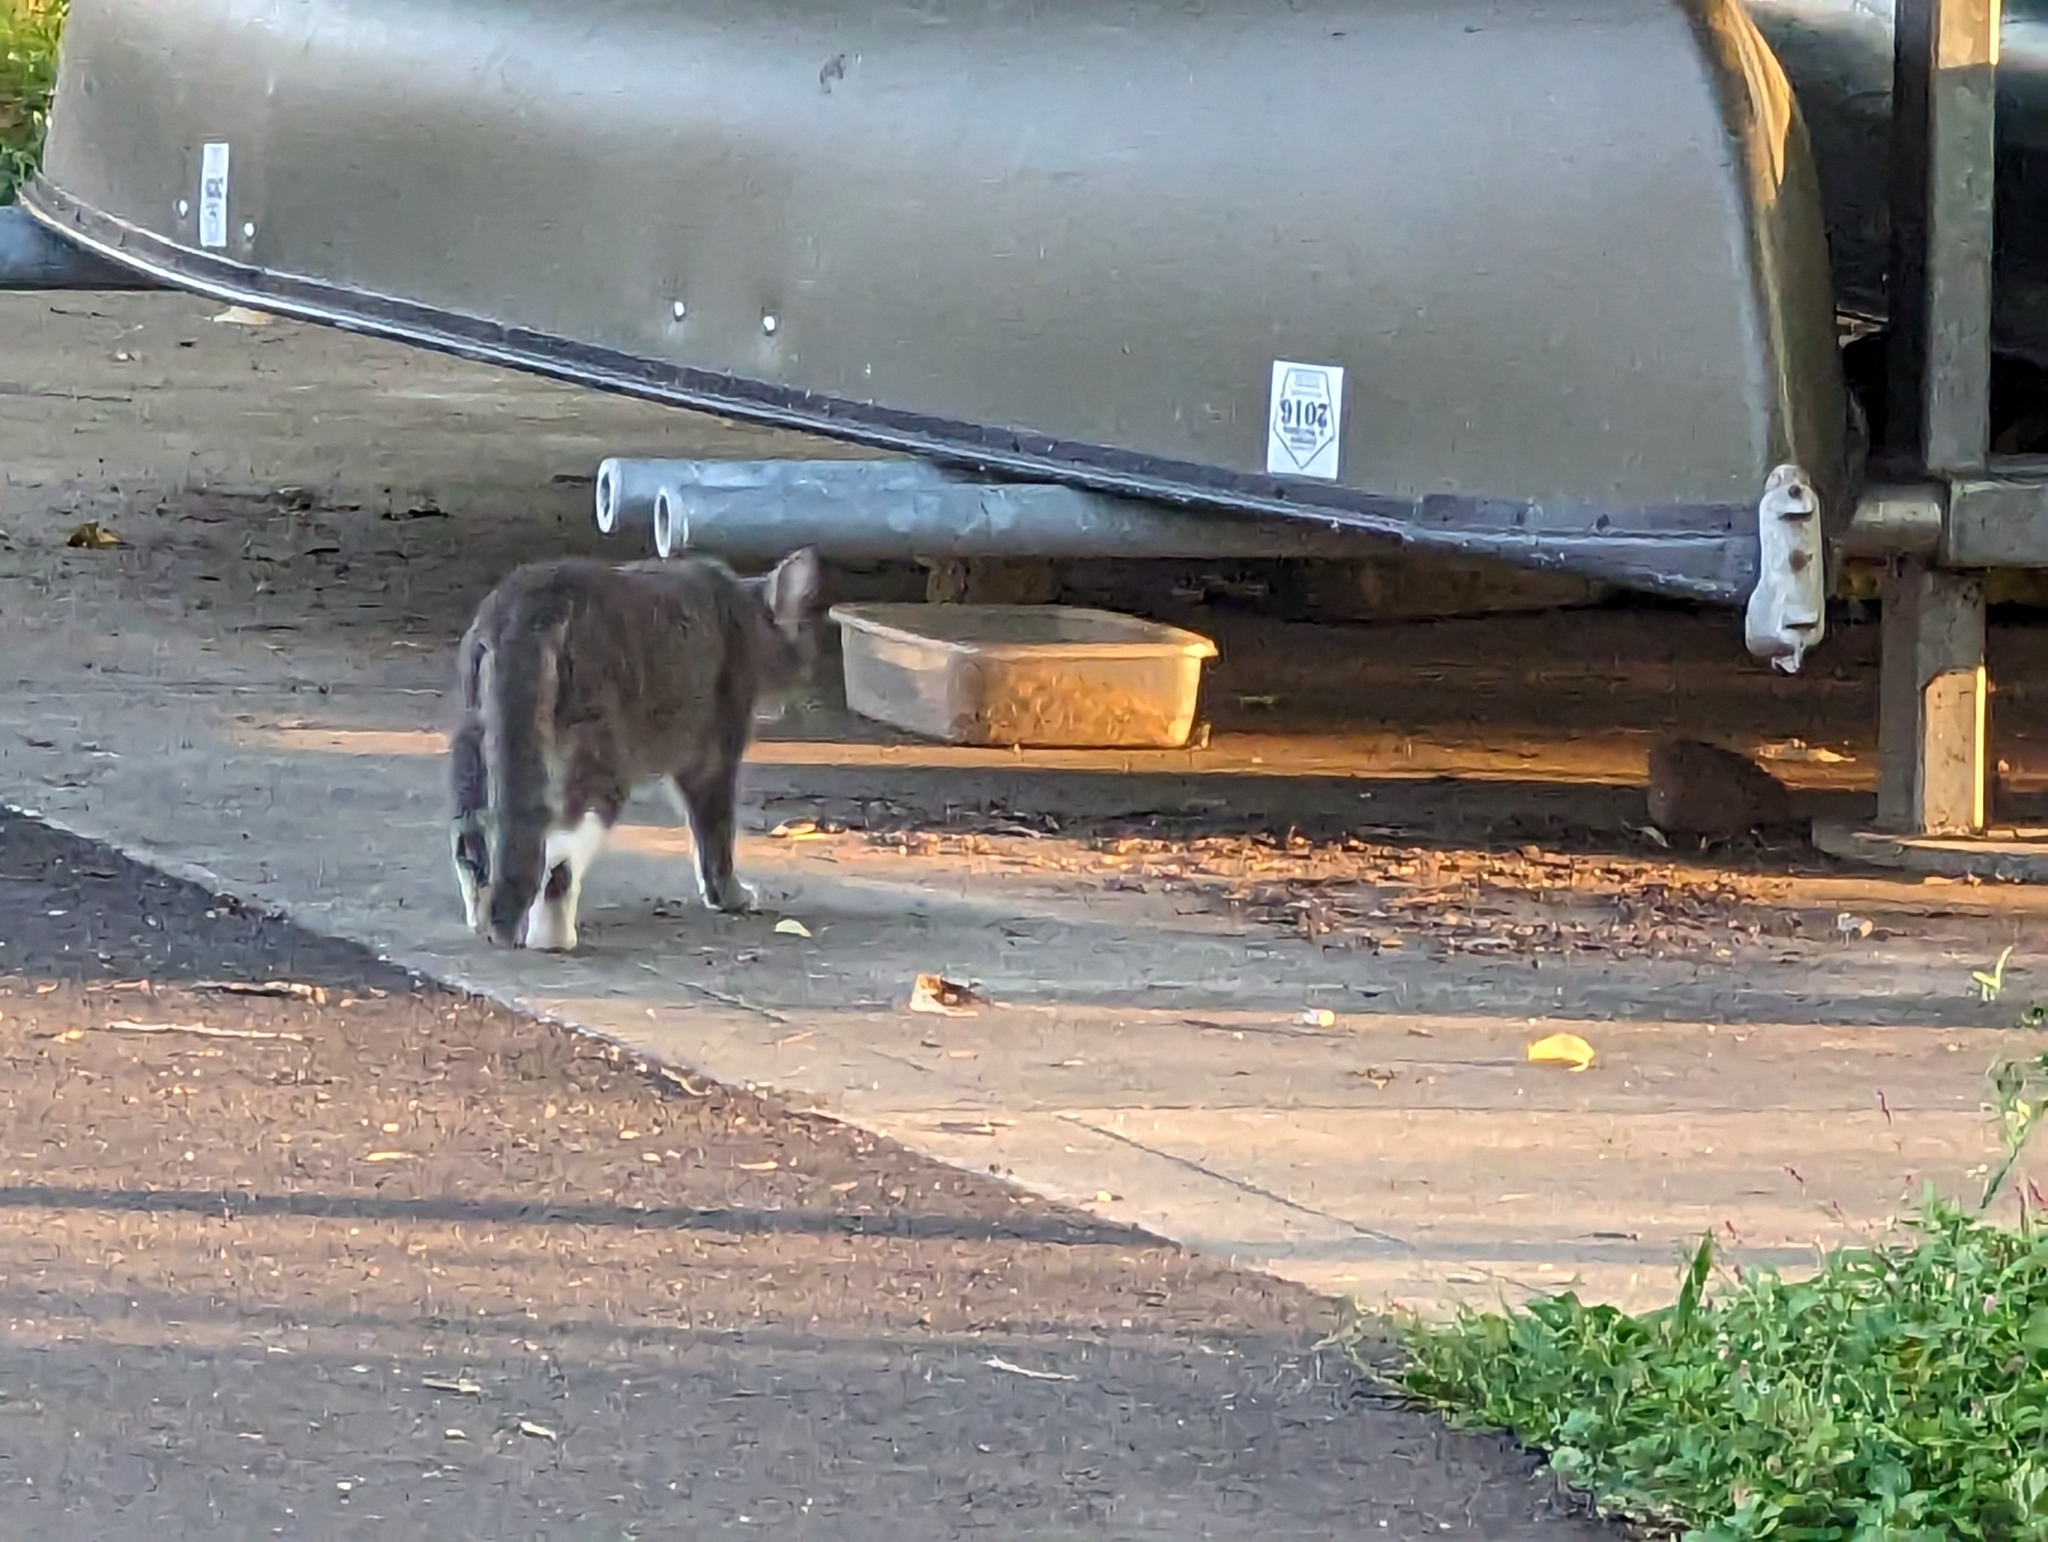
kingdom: Animalia
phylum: Chordata
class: Mammalia
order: Carnivora
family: Felidae
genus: Felis
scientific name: Felis catus
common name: Domestic cat
